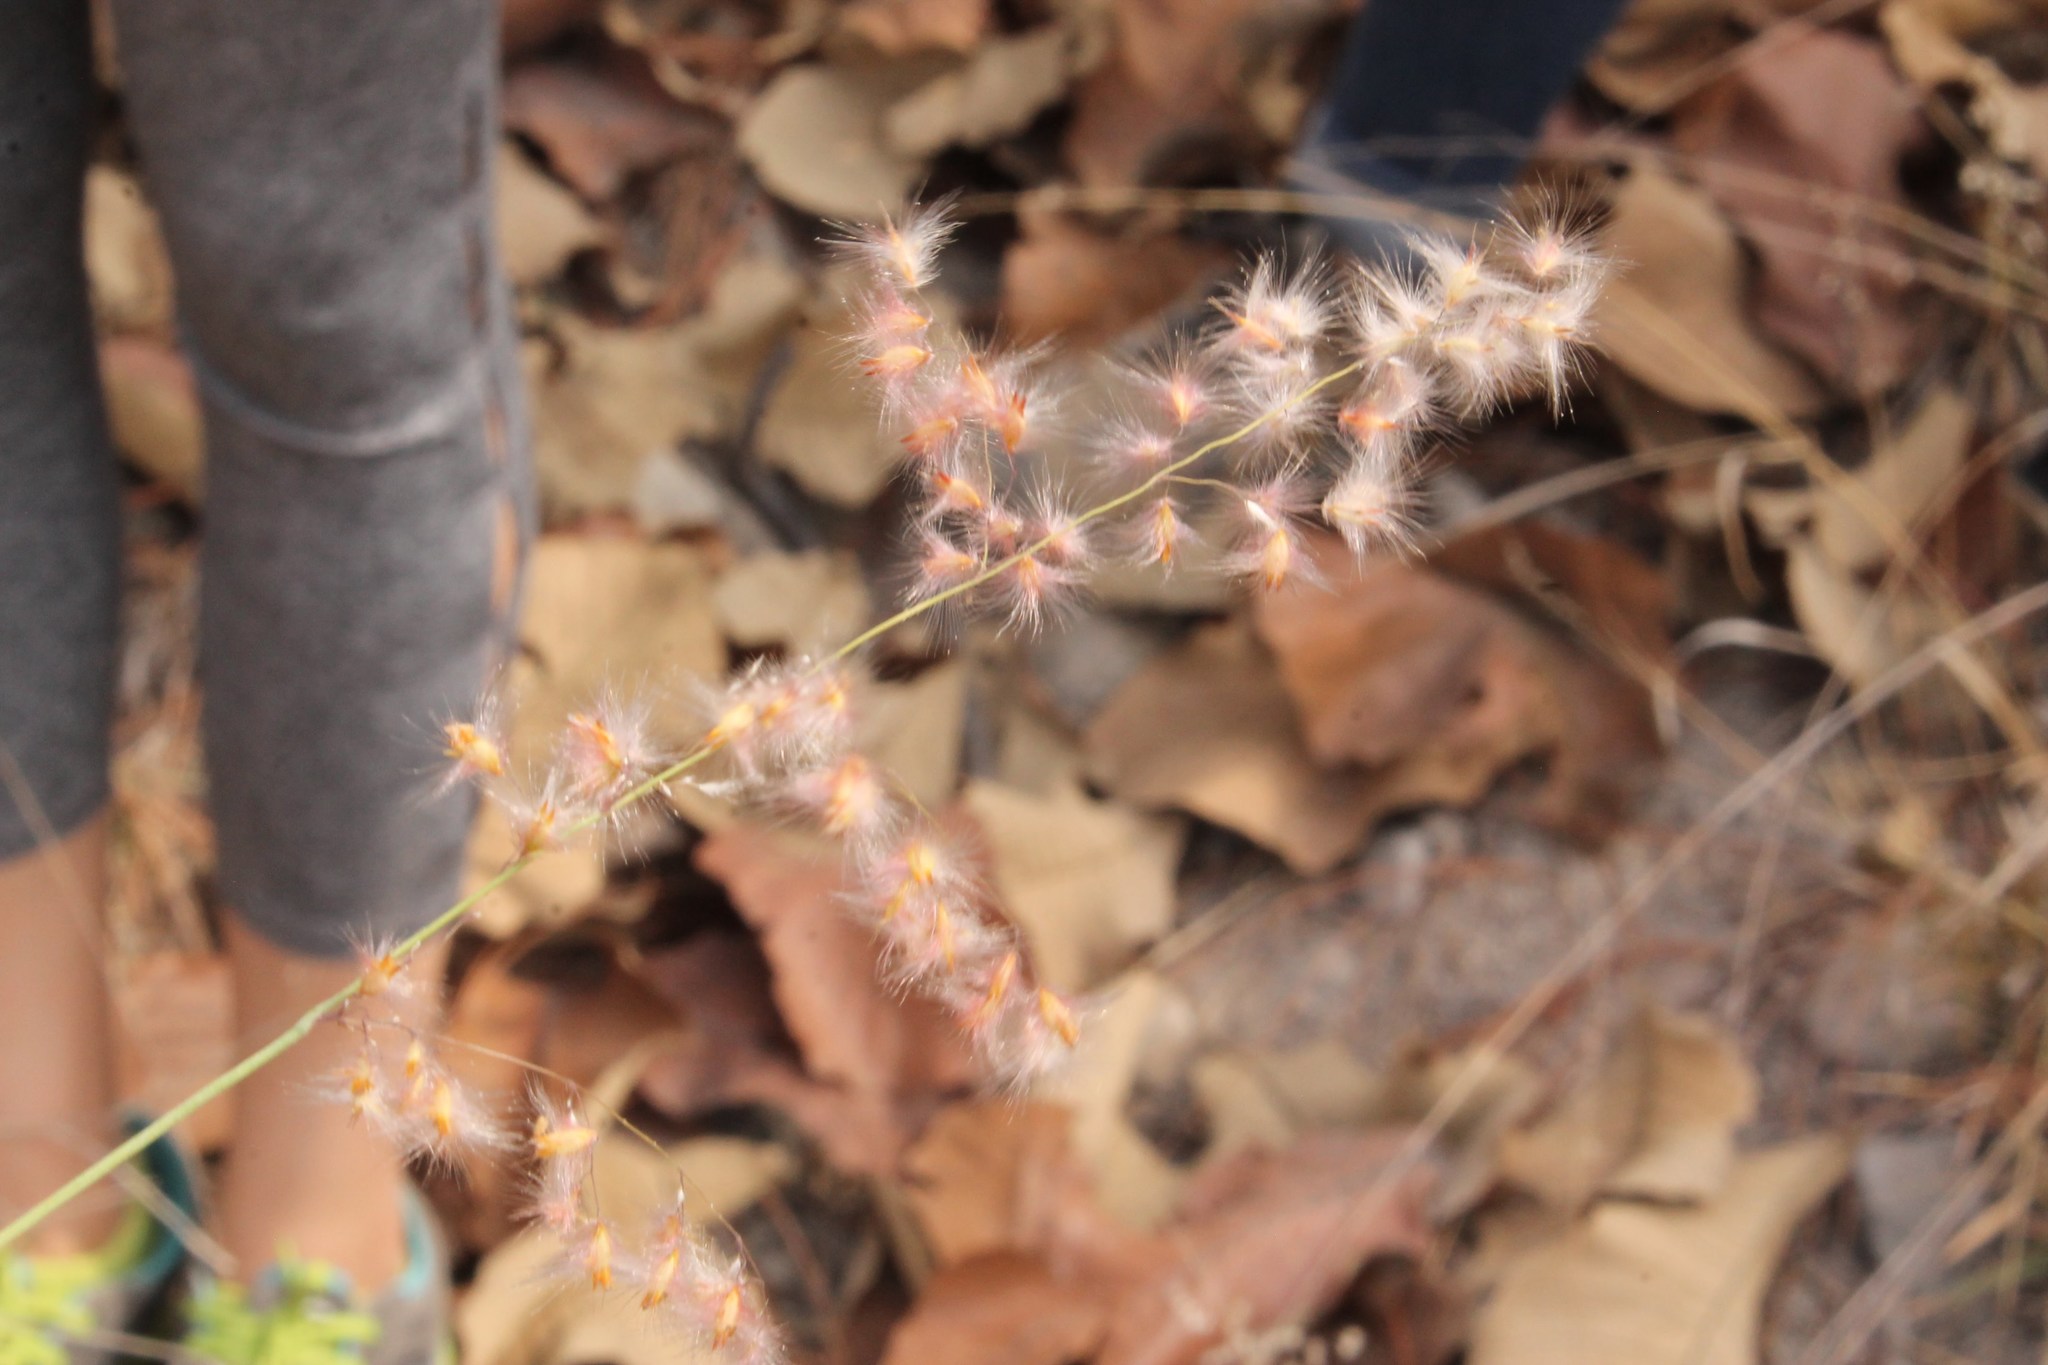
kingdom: Plantae
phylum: Tracheophyta
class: Liliopsida
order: Poales
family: Poaceae
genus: Melinis
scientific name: Melinis repens
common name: Rose natal grass
